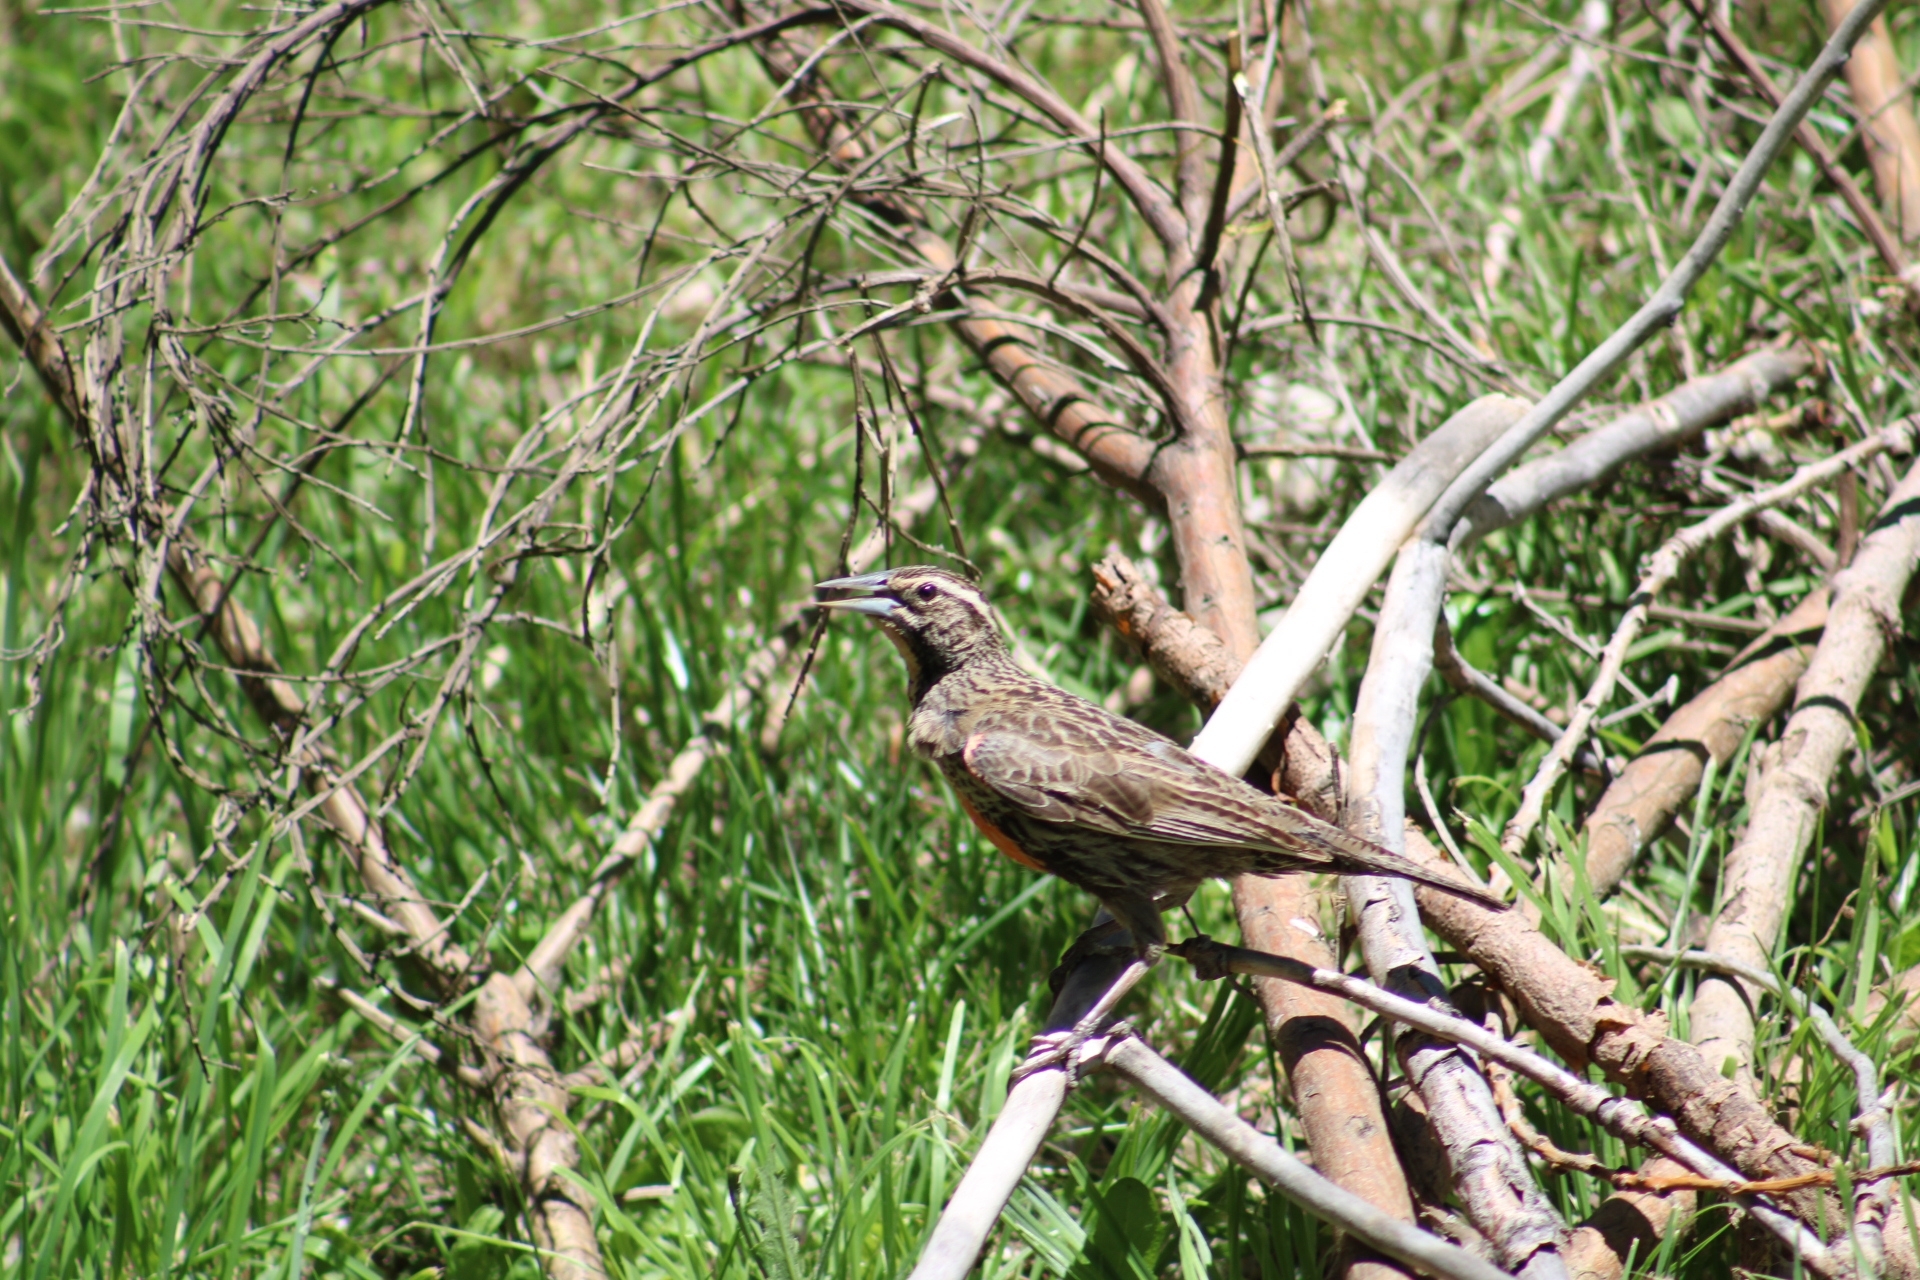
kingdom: Animalia
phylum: Chordata
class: Aves
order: Passeriformes
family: Icteridae
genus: Sturnella
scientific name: Sturnella loyca
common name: Long-tailed meadowlark
